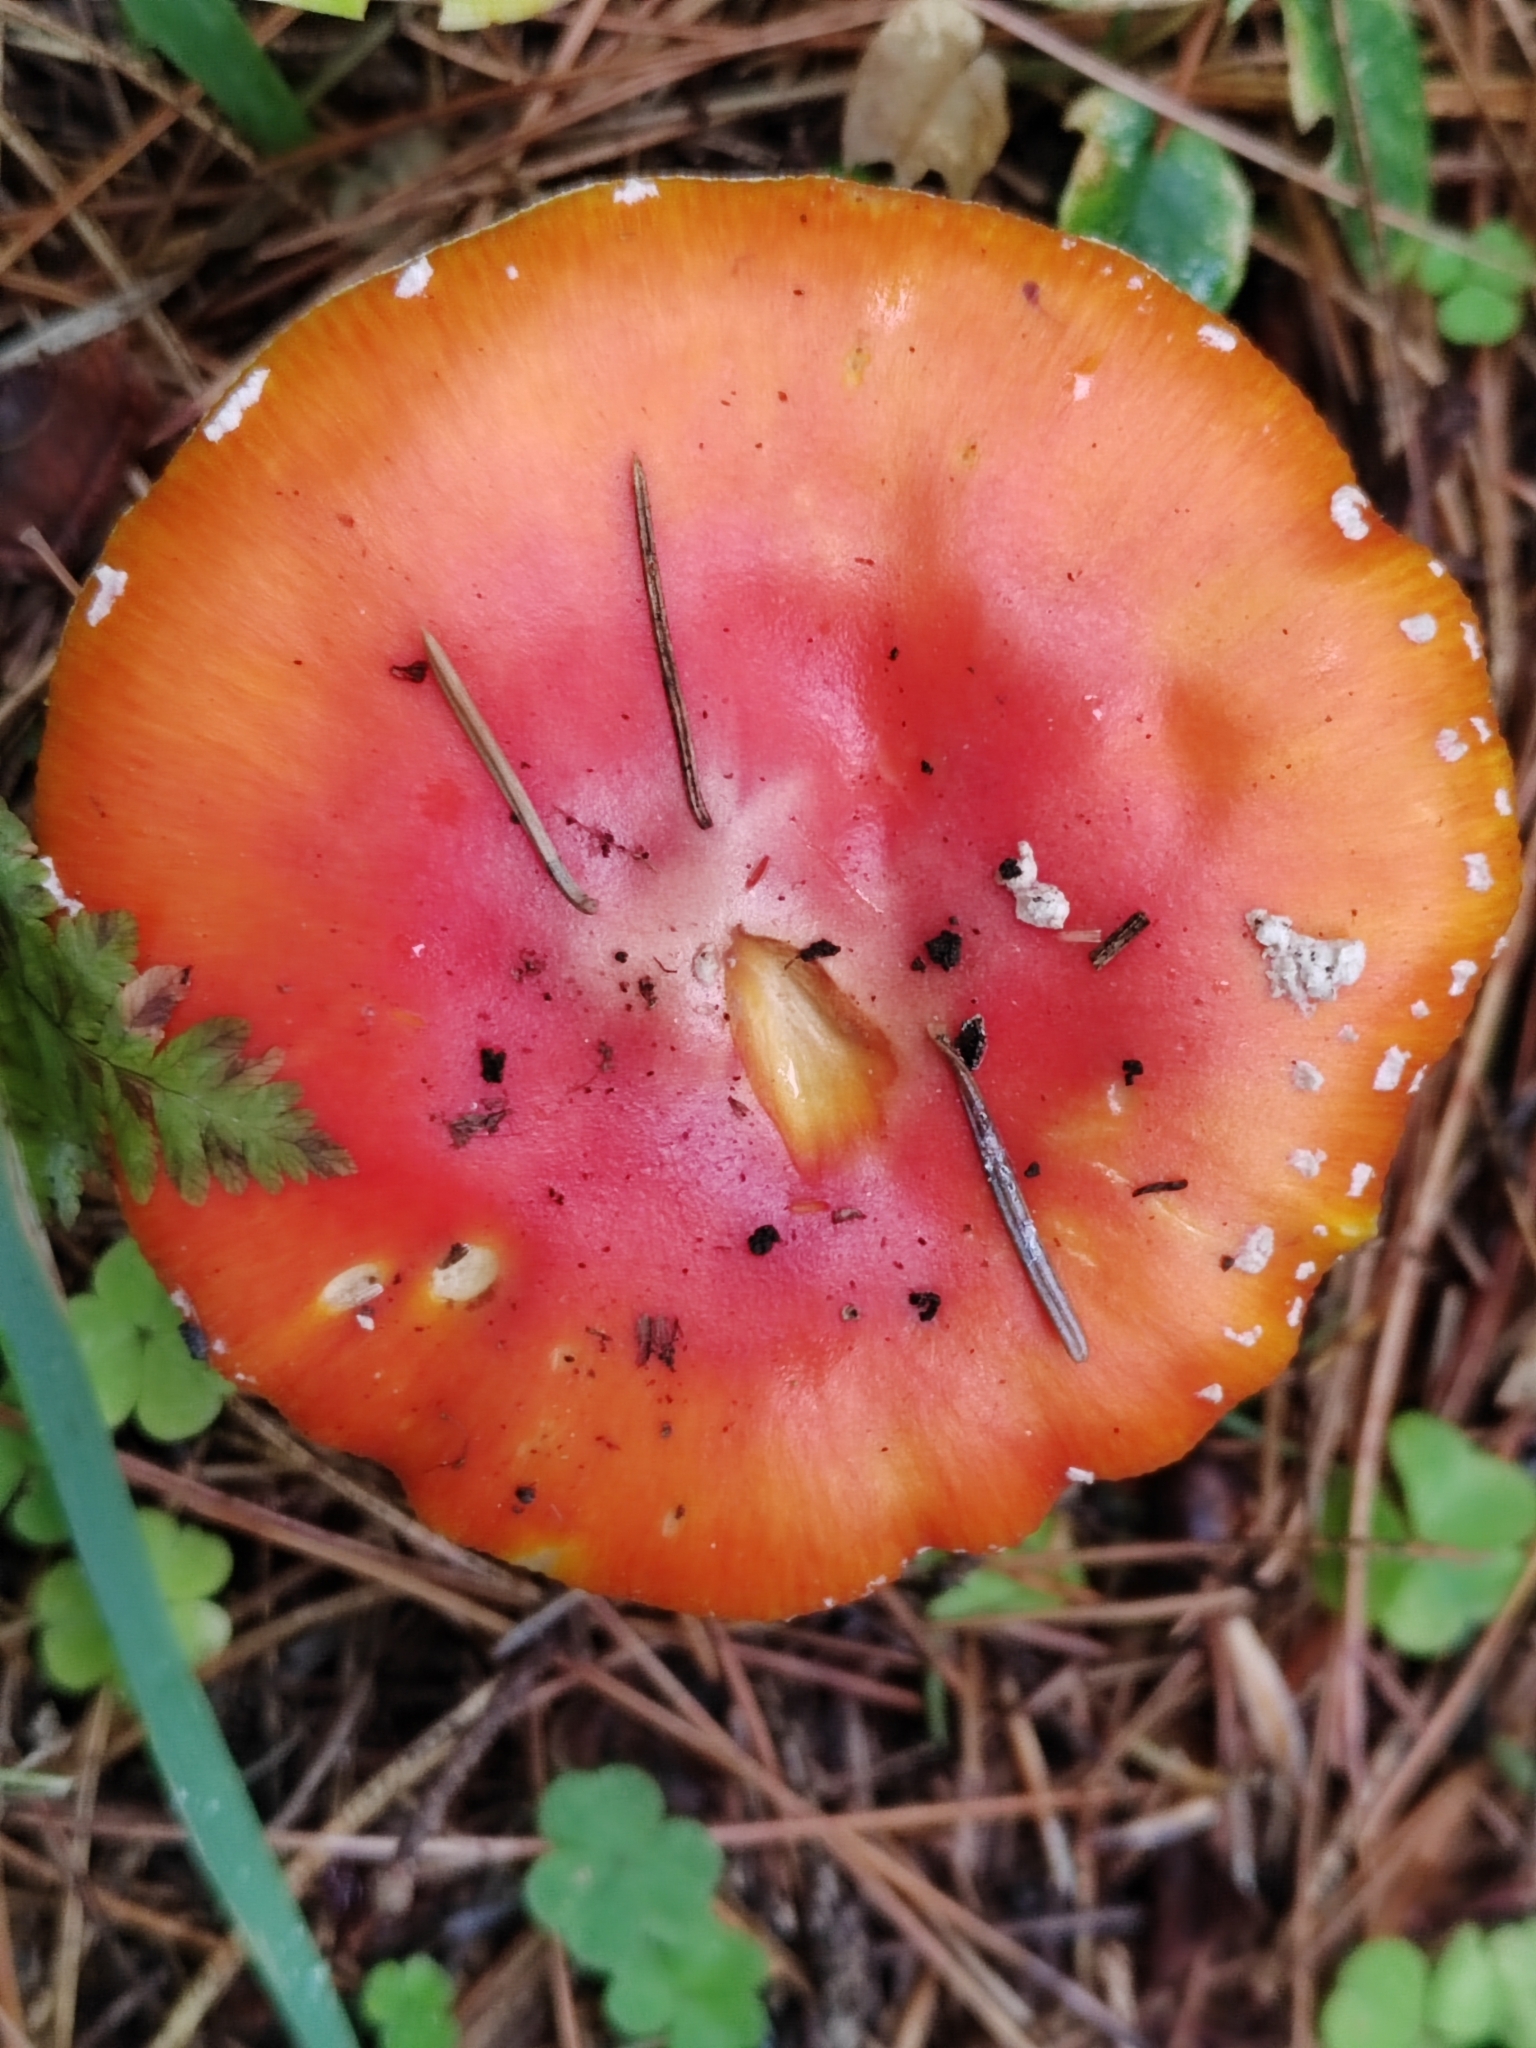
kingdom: Fungi
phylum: Basidiomycota
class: Agaricomycetes
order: Agaricales
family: Amanitaceae
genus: Amanita
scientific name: Amanita muscaria
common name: Fly agaric
